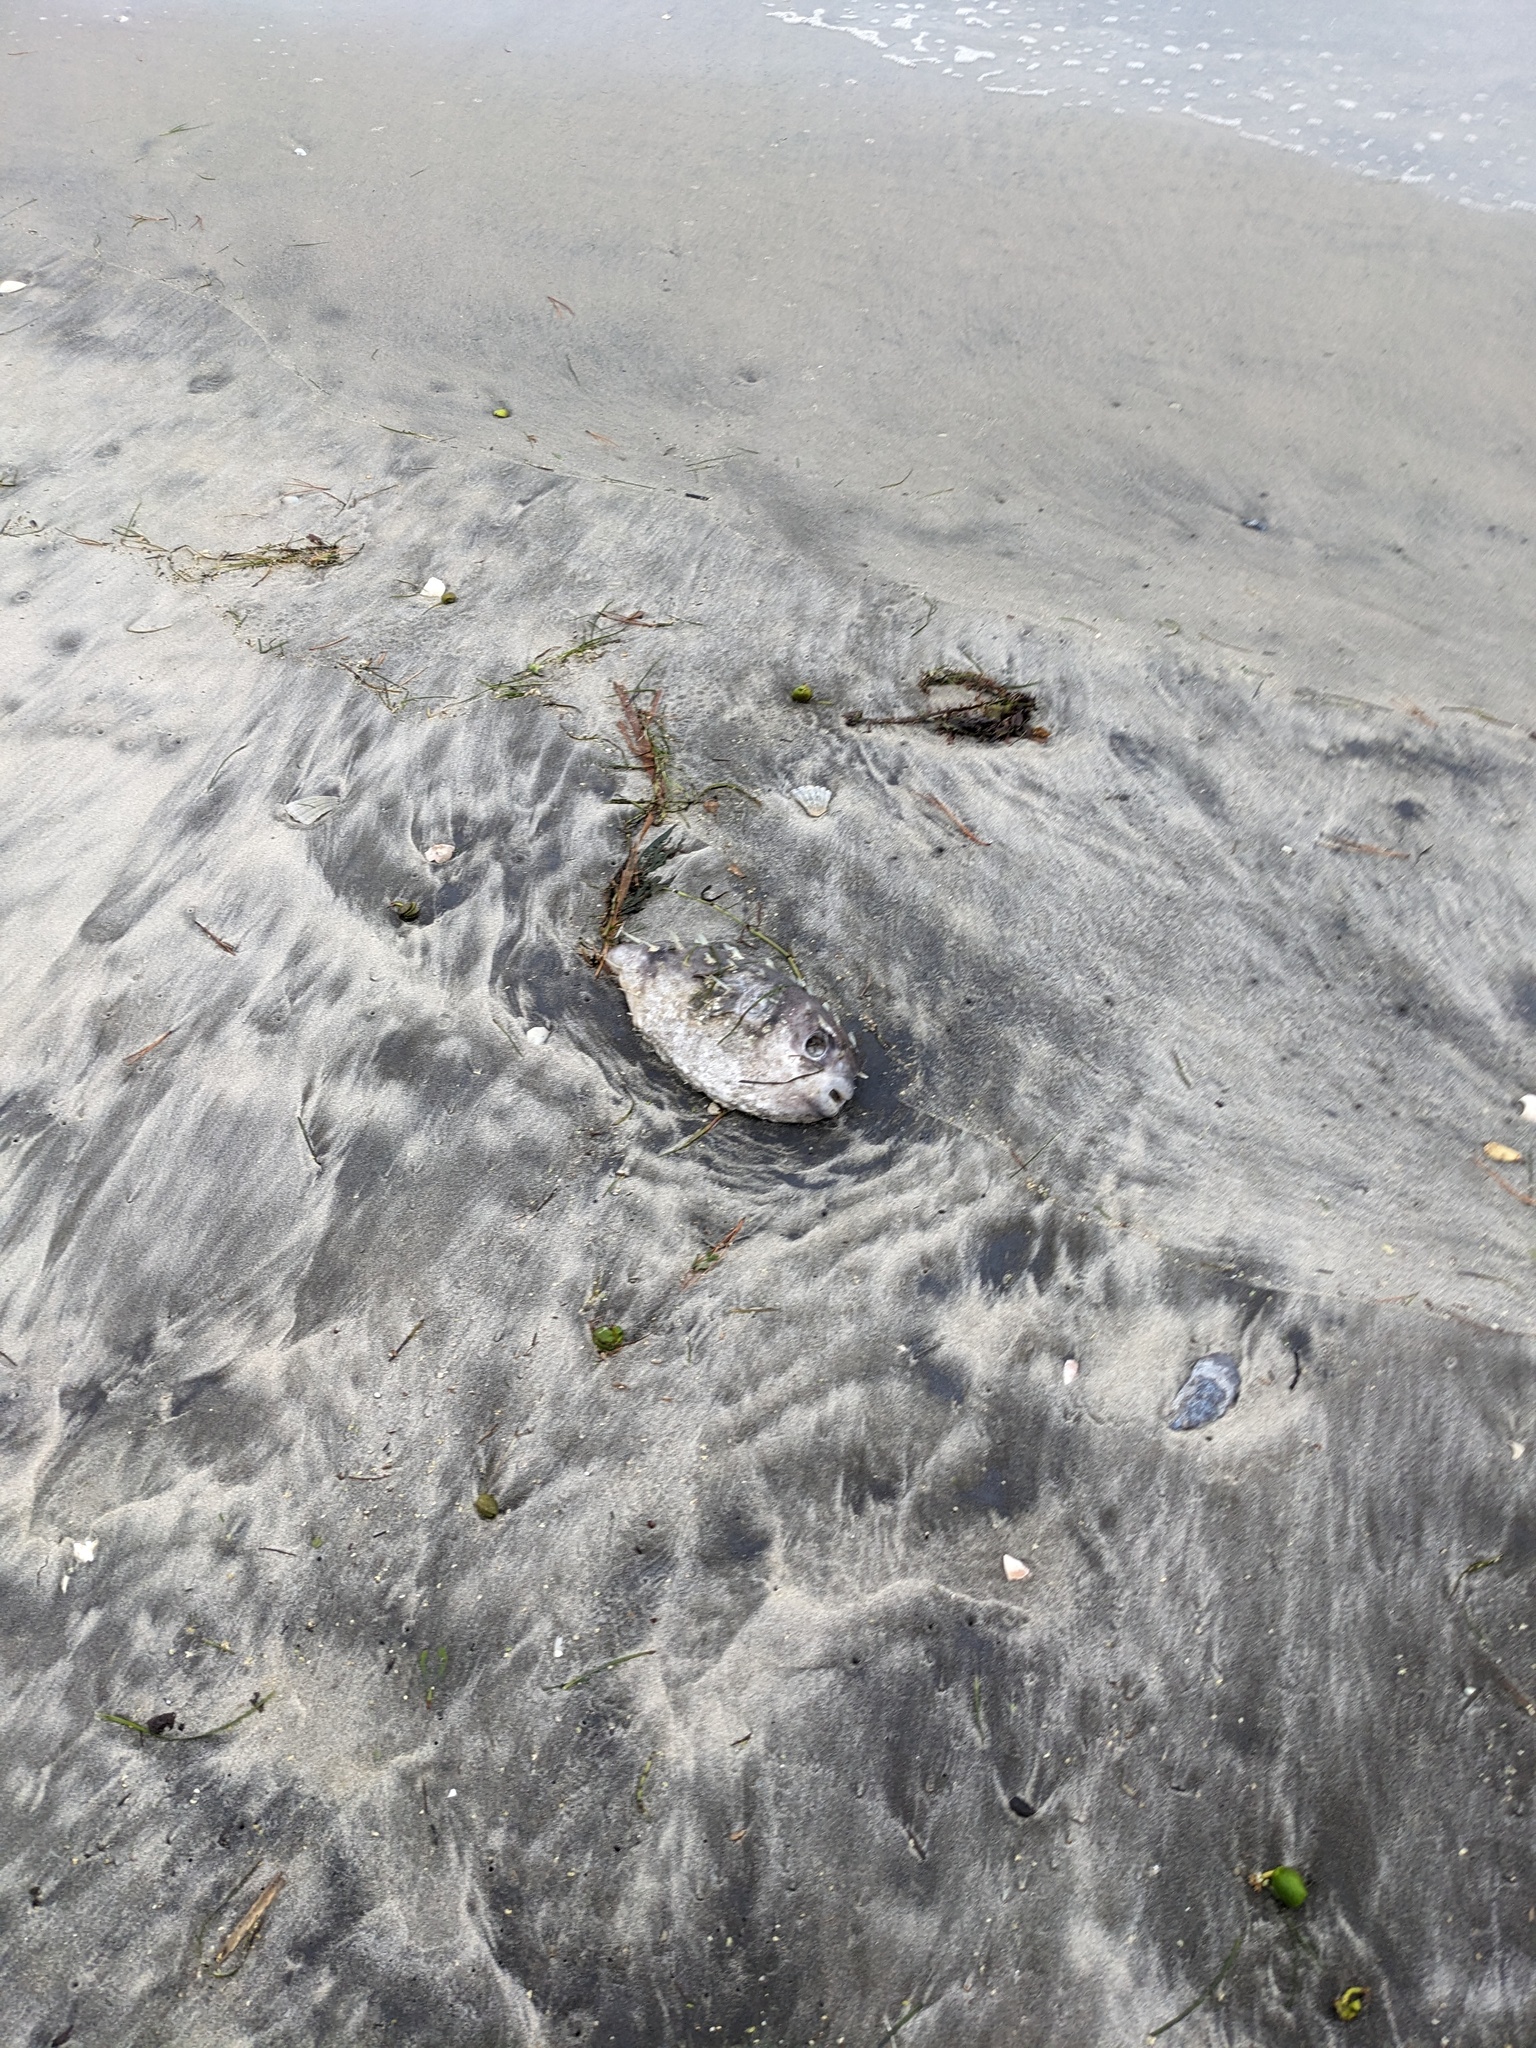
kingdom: Animalia
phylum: Chordata
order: Tetraodontiformes
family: Diodontidae
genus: Allomycterus
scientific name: Allomycterus pilatus
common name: No common name
